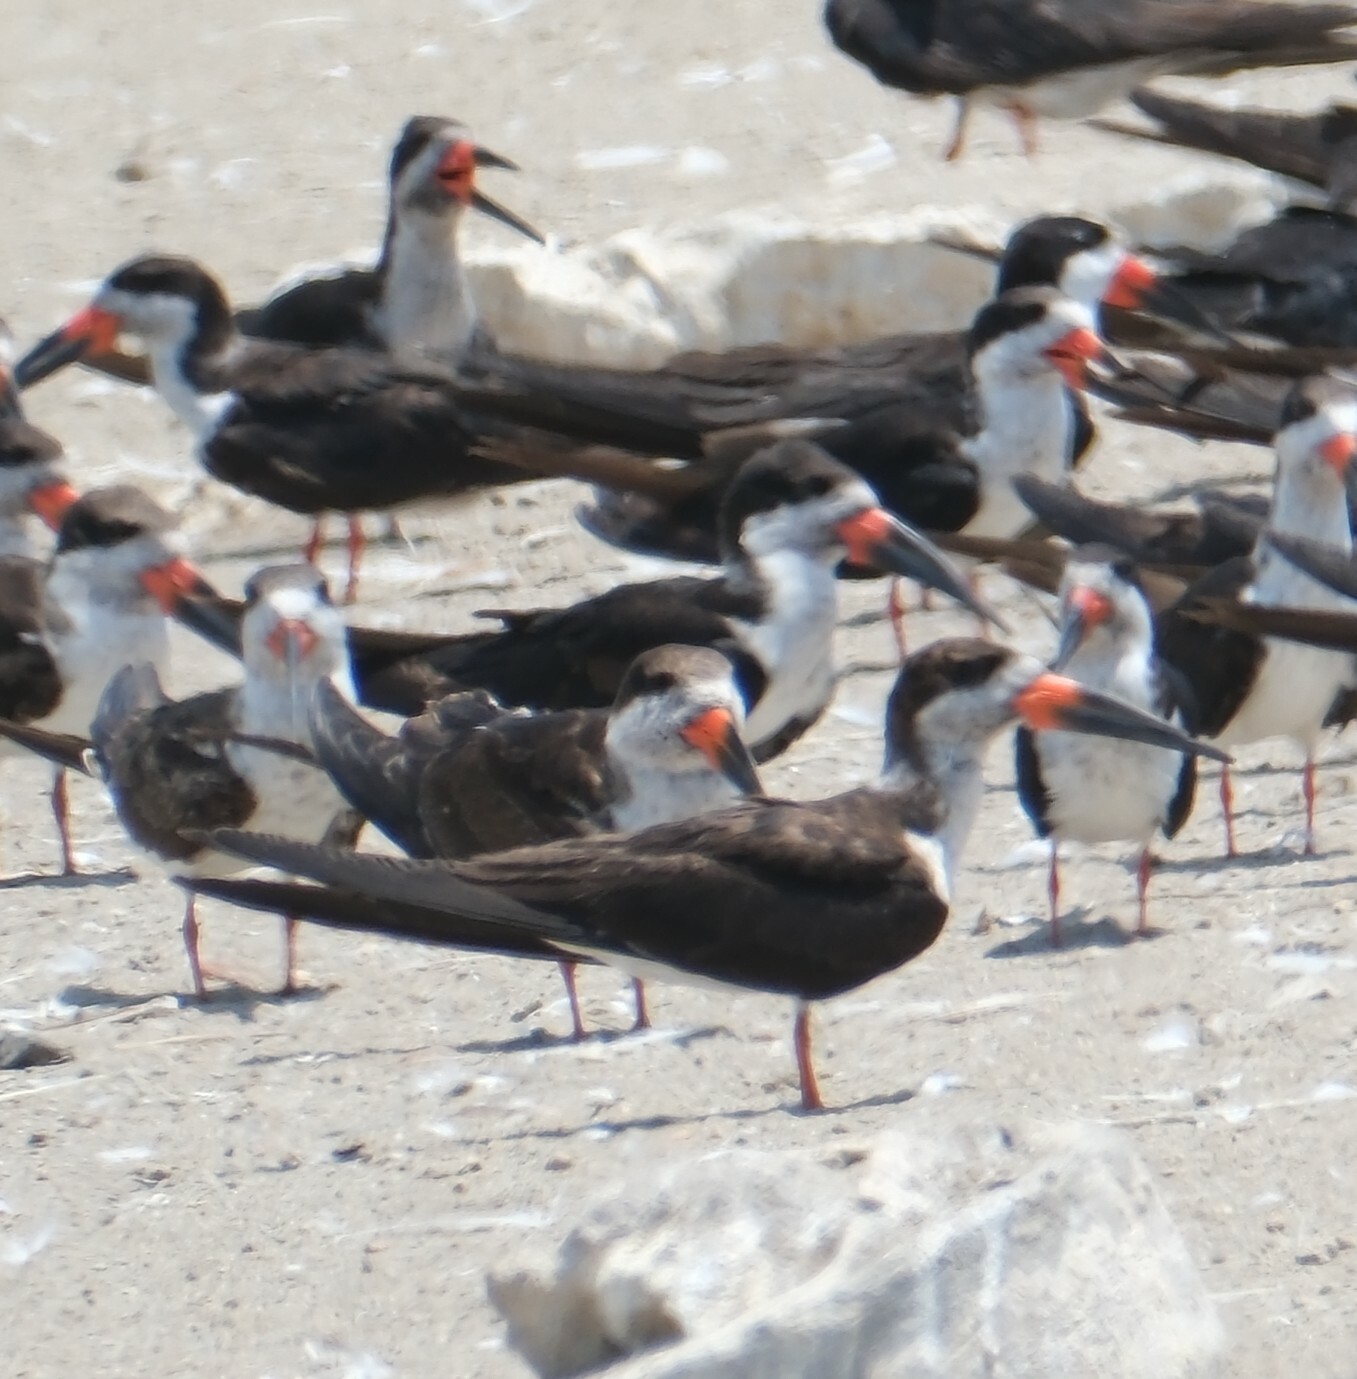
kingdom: Animalia
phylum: Chordata
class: Aves
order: Charadriiformes
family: Laridae
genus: Rynchops
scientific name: Rynchops niger
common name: Black skimmer
